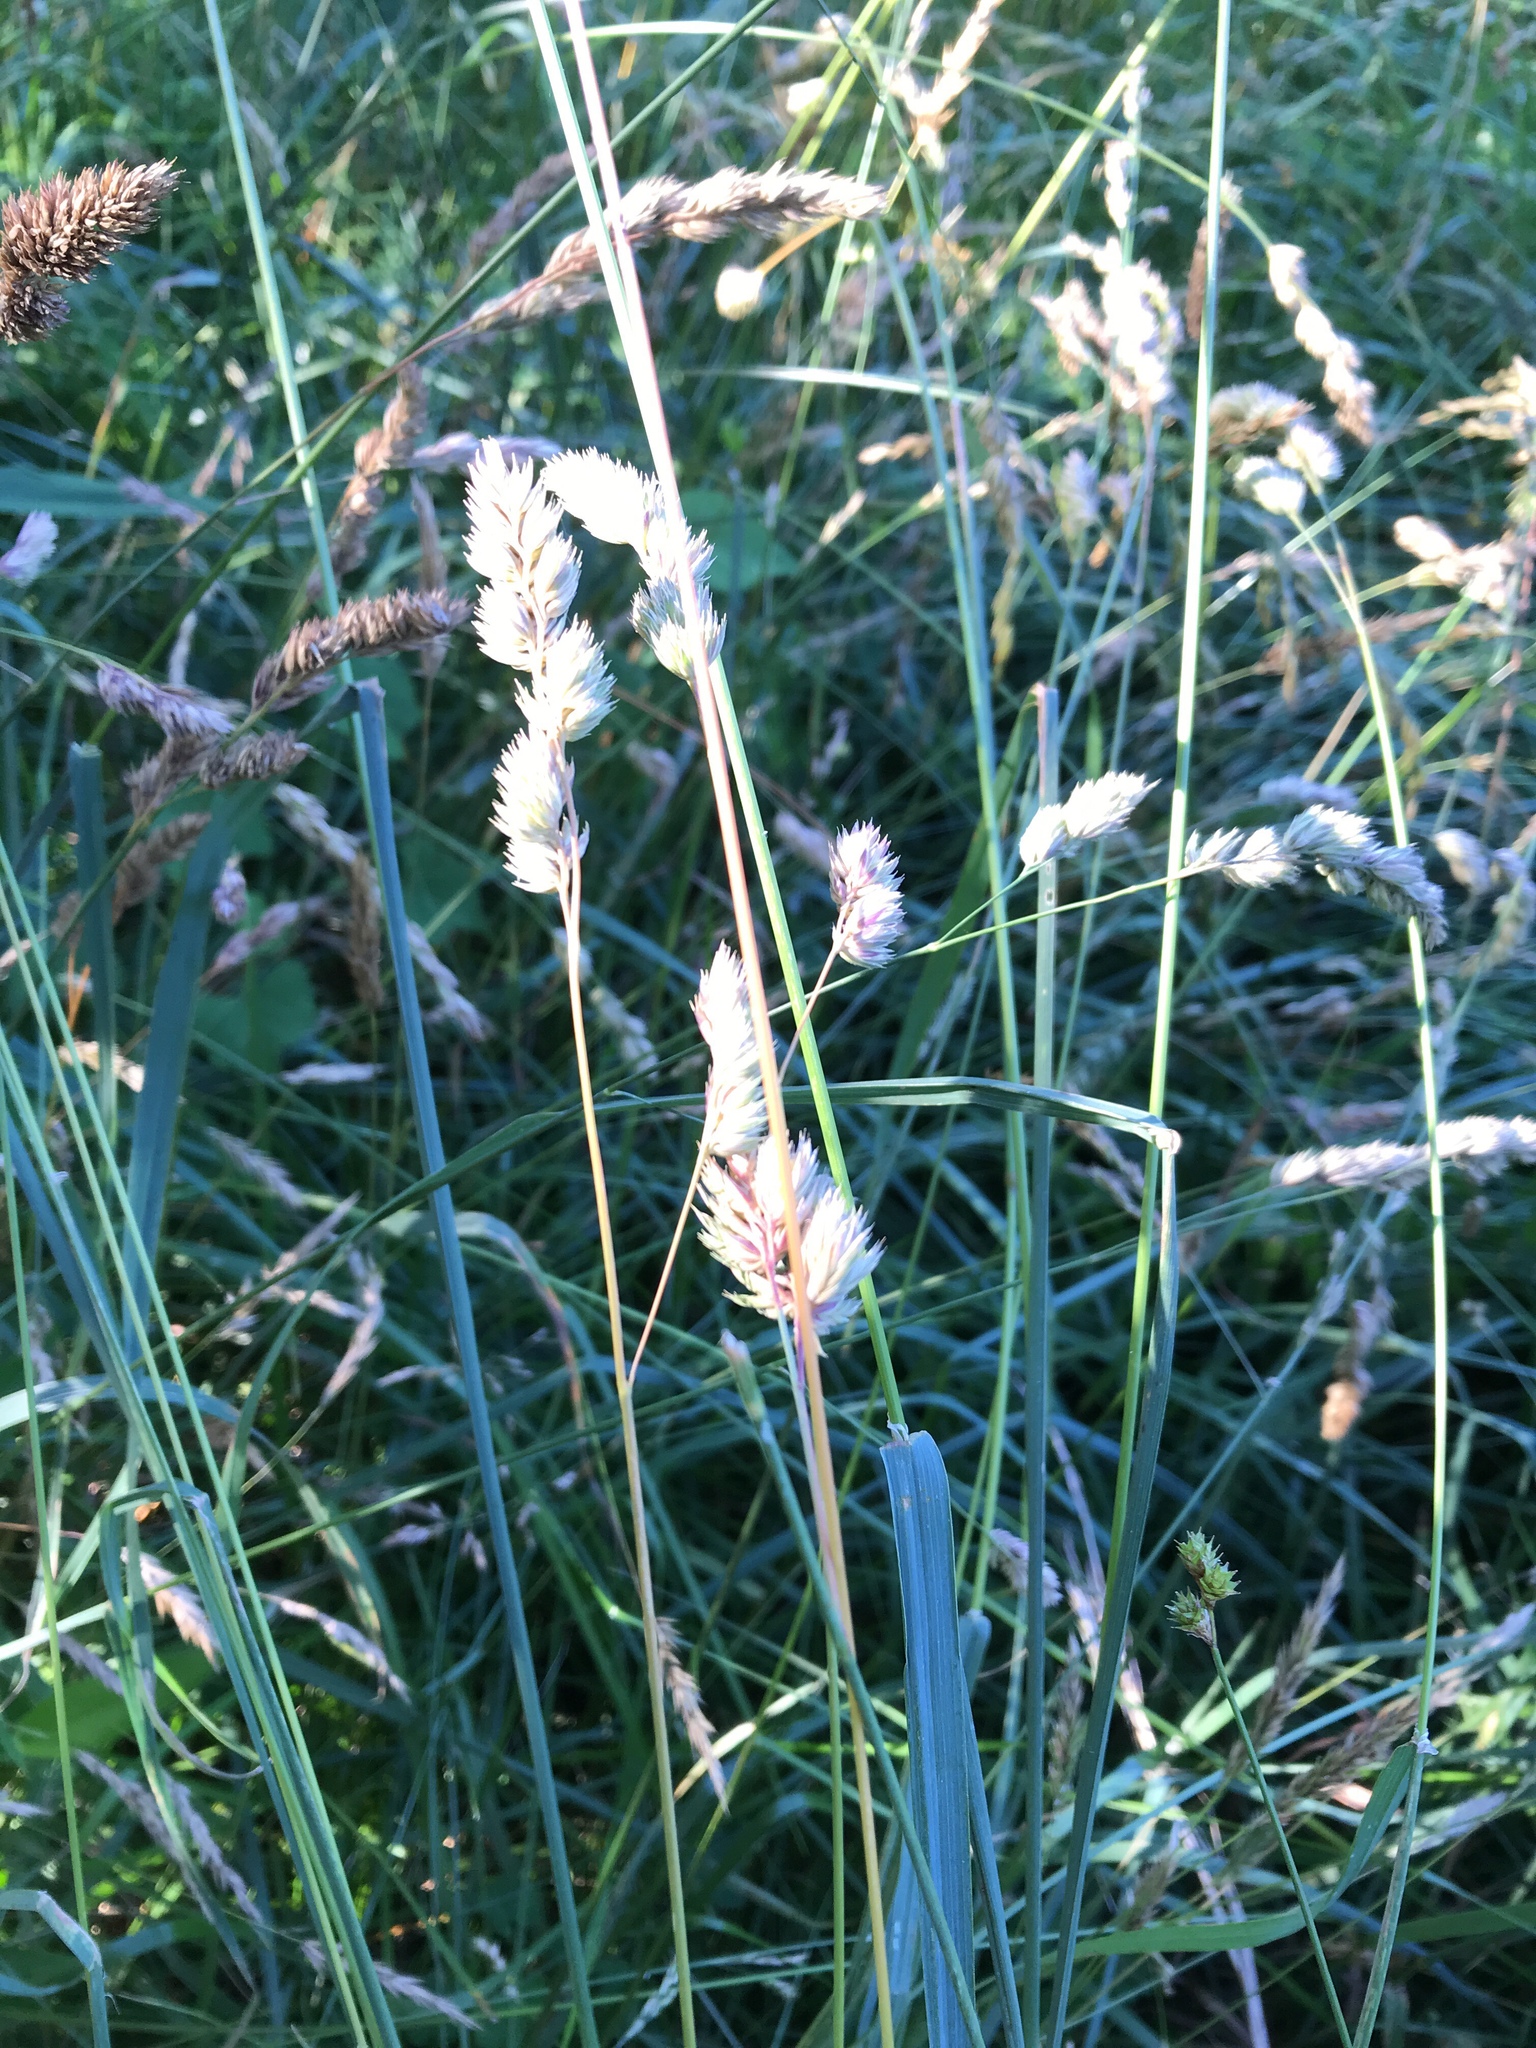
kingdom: Plantae
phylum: Tracheophyta
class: Liliopsida
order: Poales
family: Poaceae
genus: Dactylis
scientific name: Dactylis glomerata
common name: Orchardgrass
